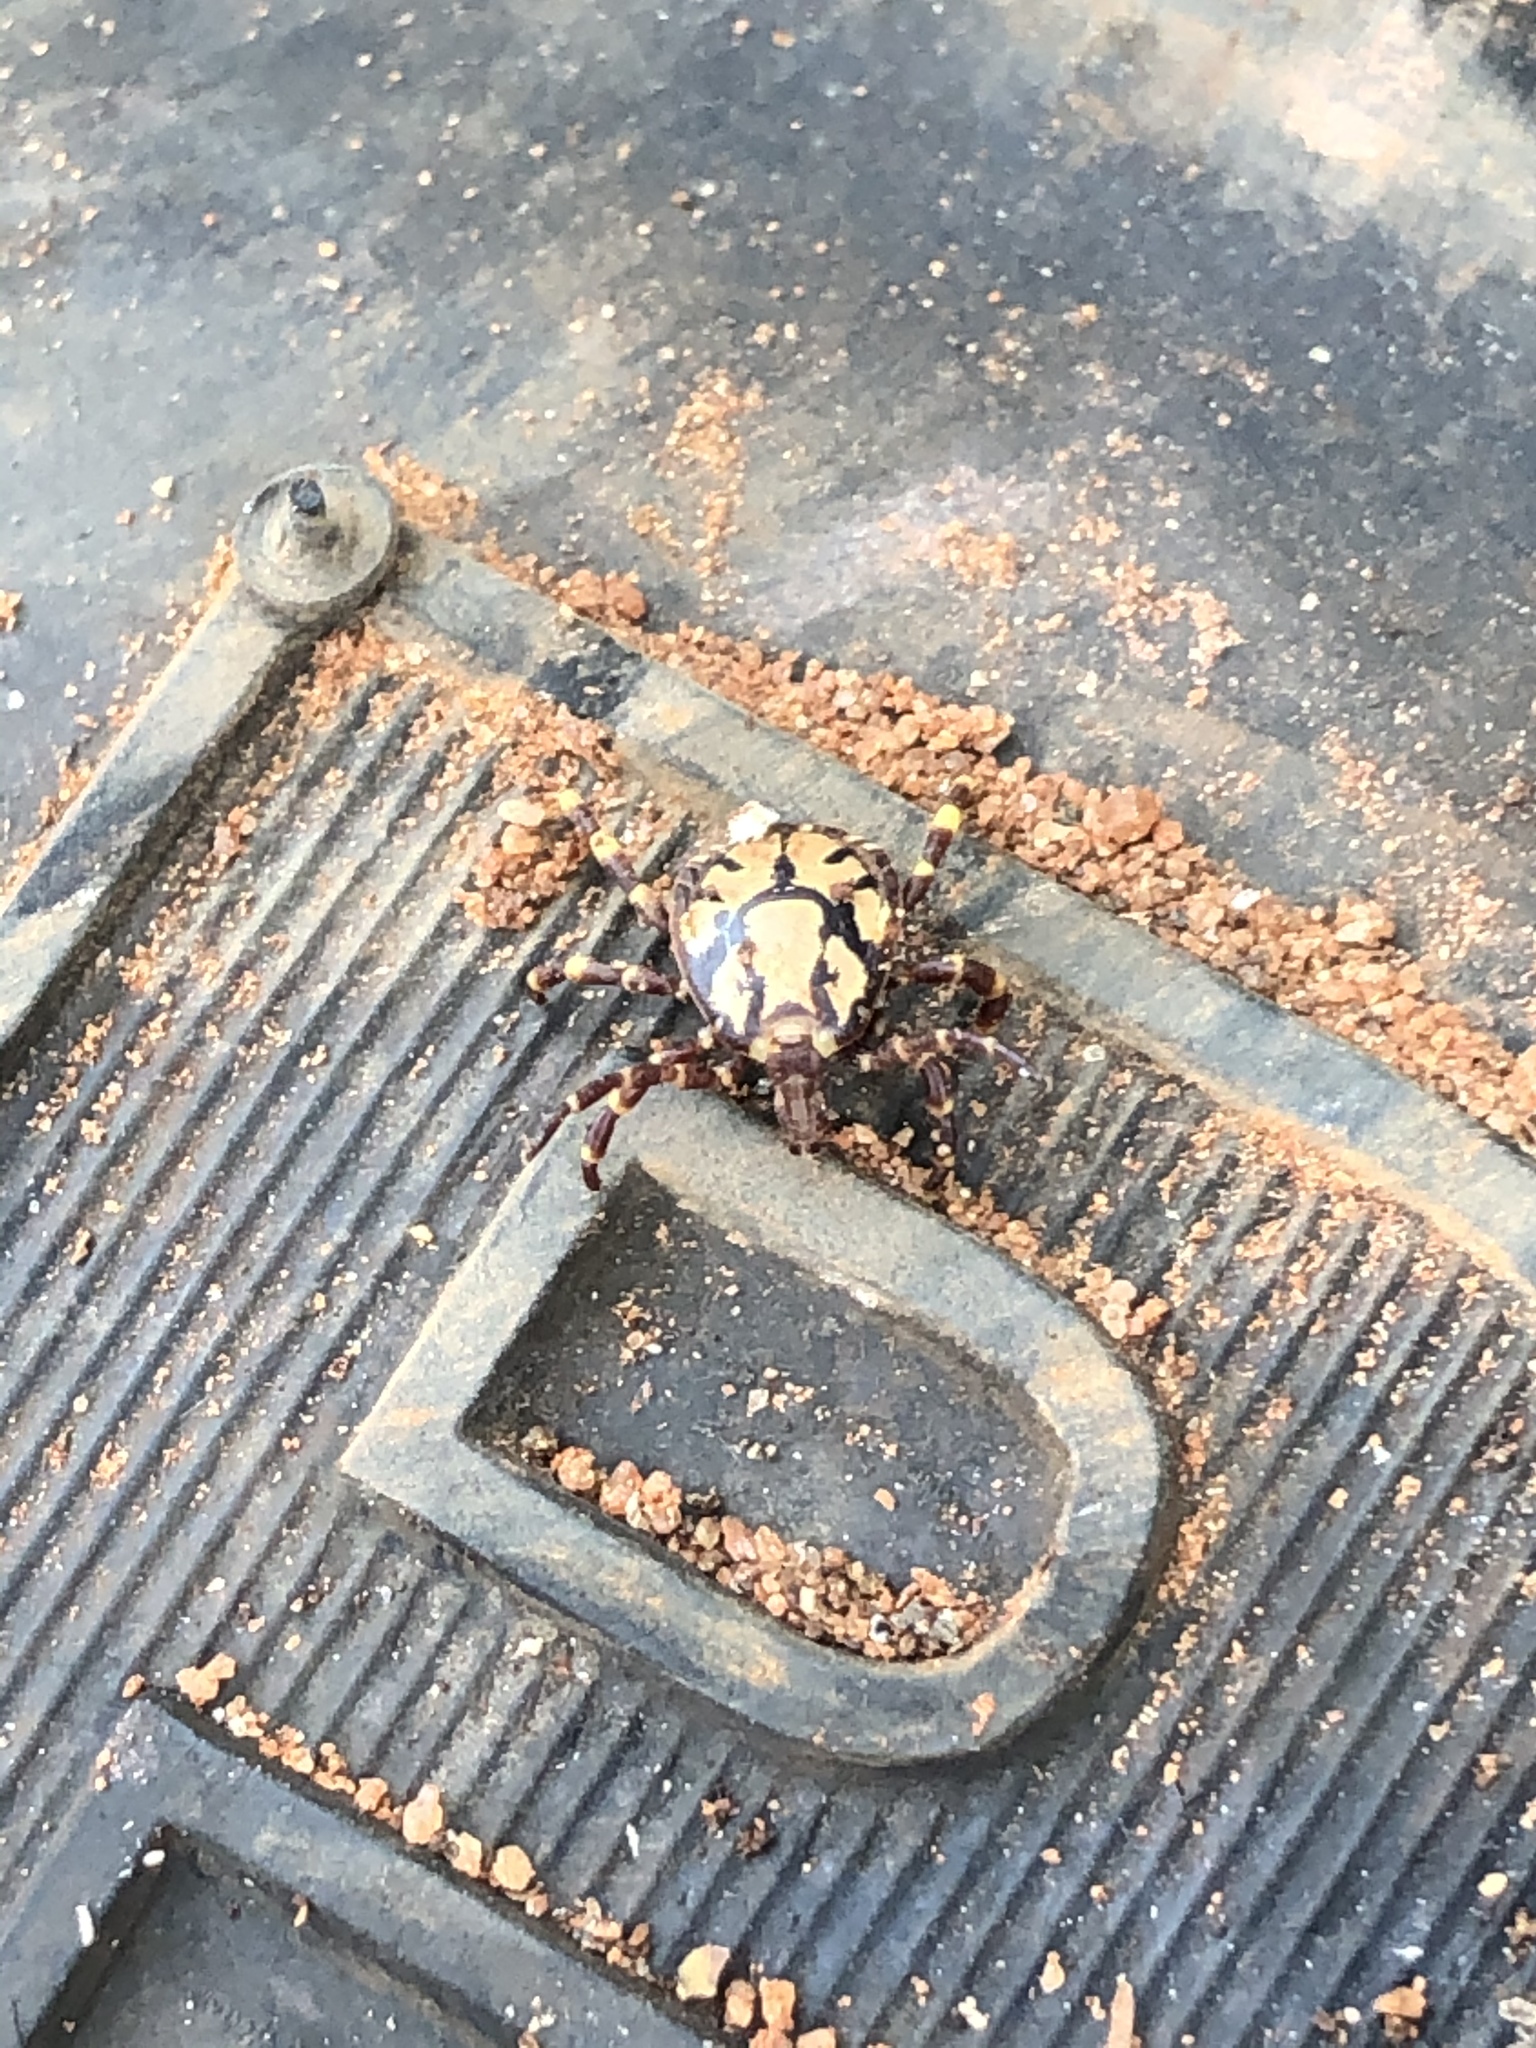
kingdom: Animalia
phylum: Arthropoda
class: Arachnida
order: Ixodida
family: Ixodidae
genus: Amblyomma
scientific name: Amblyomma gemma
